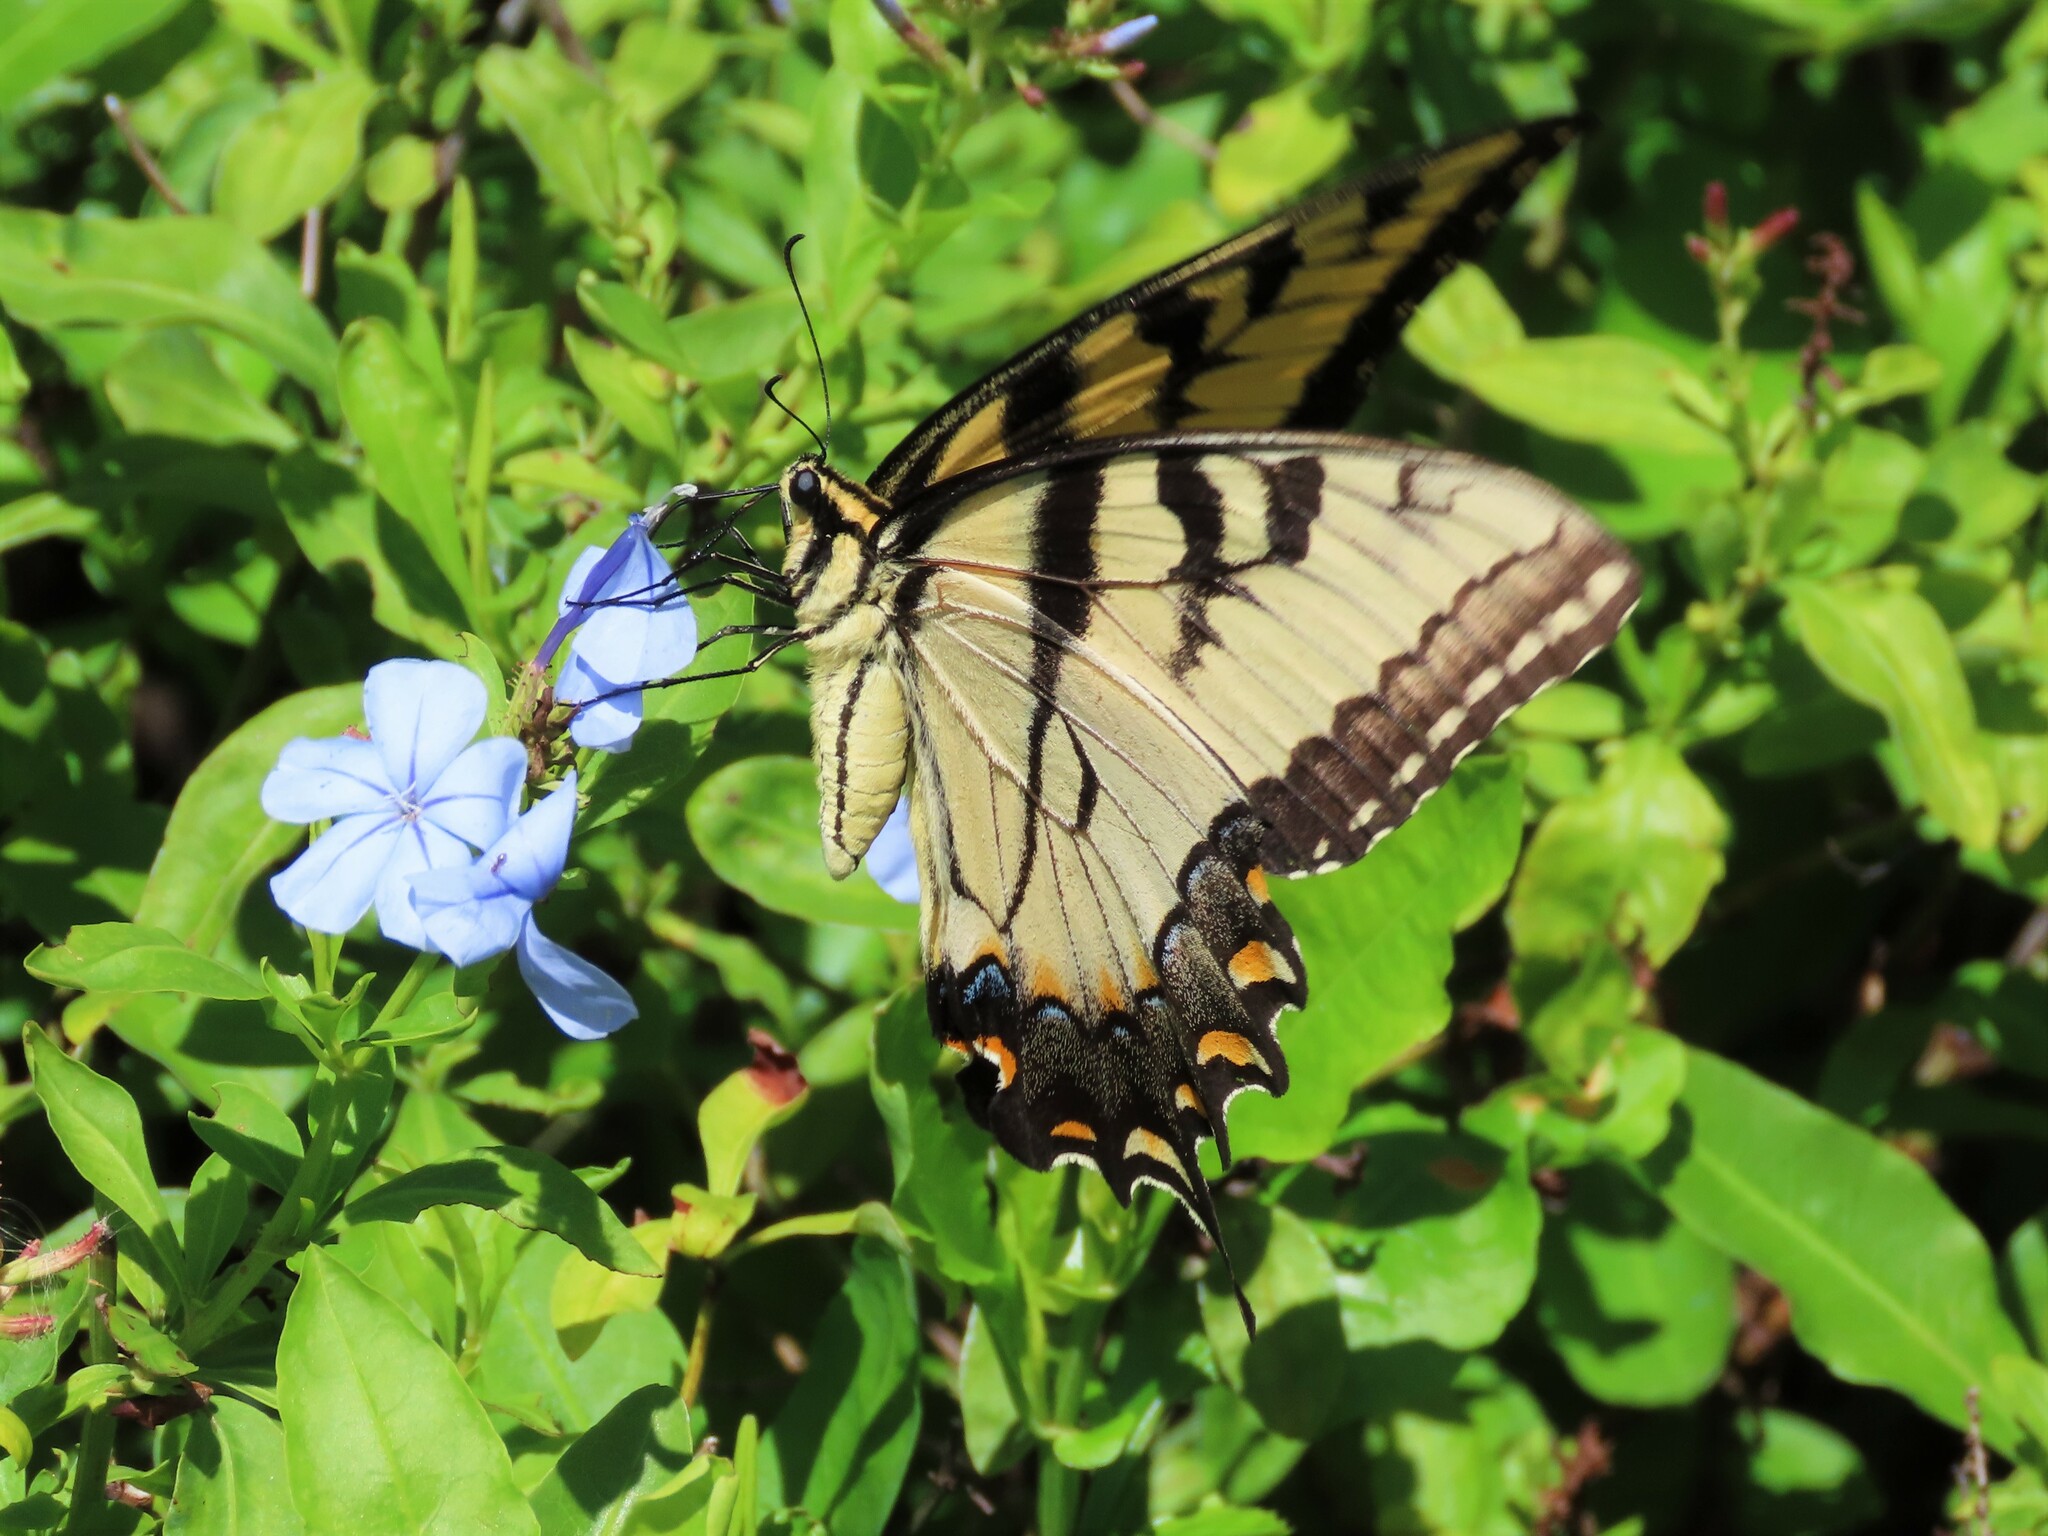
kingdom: Animalia
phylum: Arthropoda
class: Insecta
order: Lepidoptera
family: Papilionidae
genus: Papilio
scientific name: Papilio glaucus
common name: Tiger swallowtail
